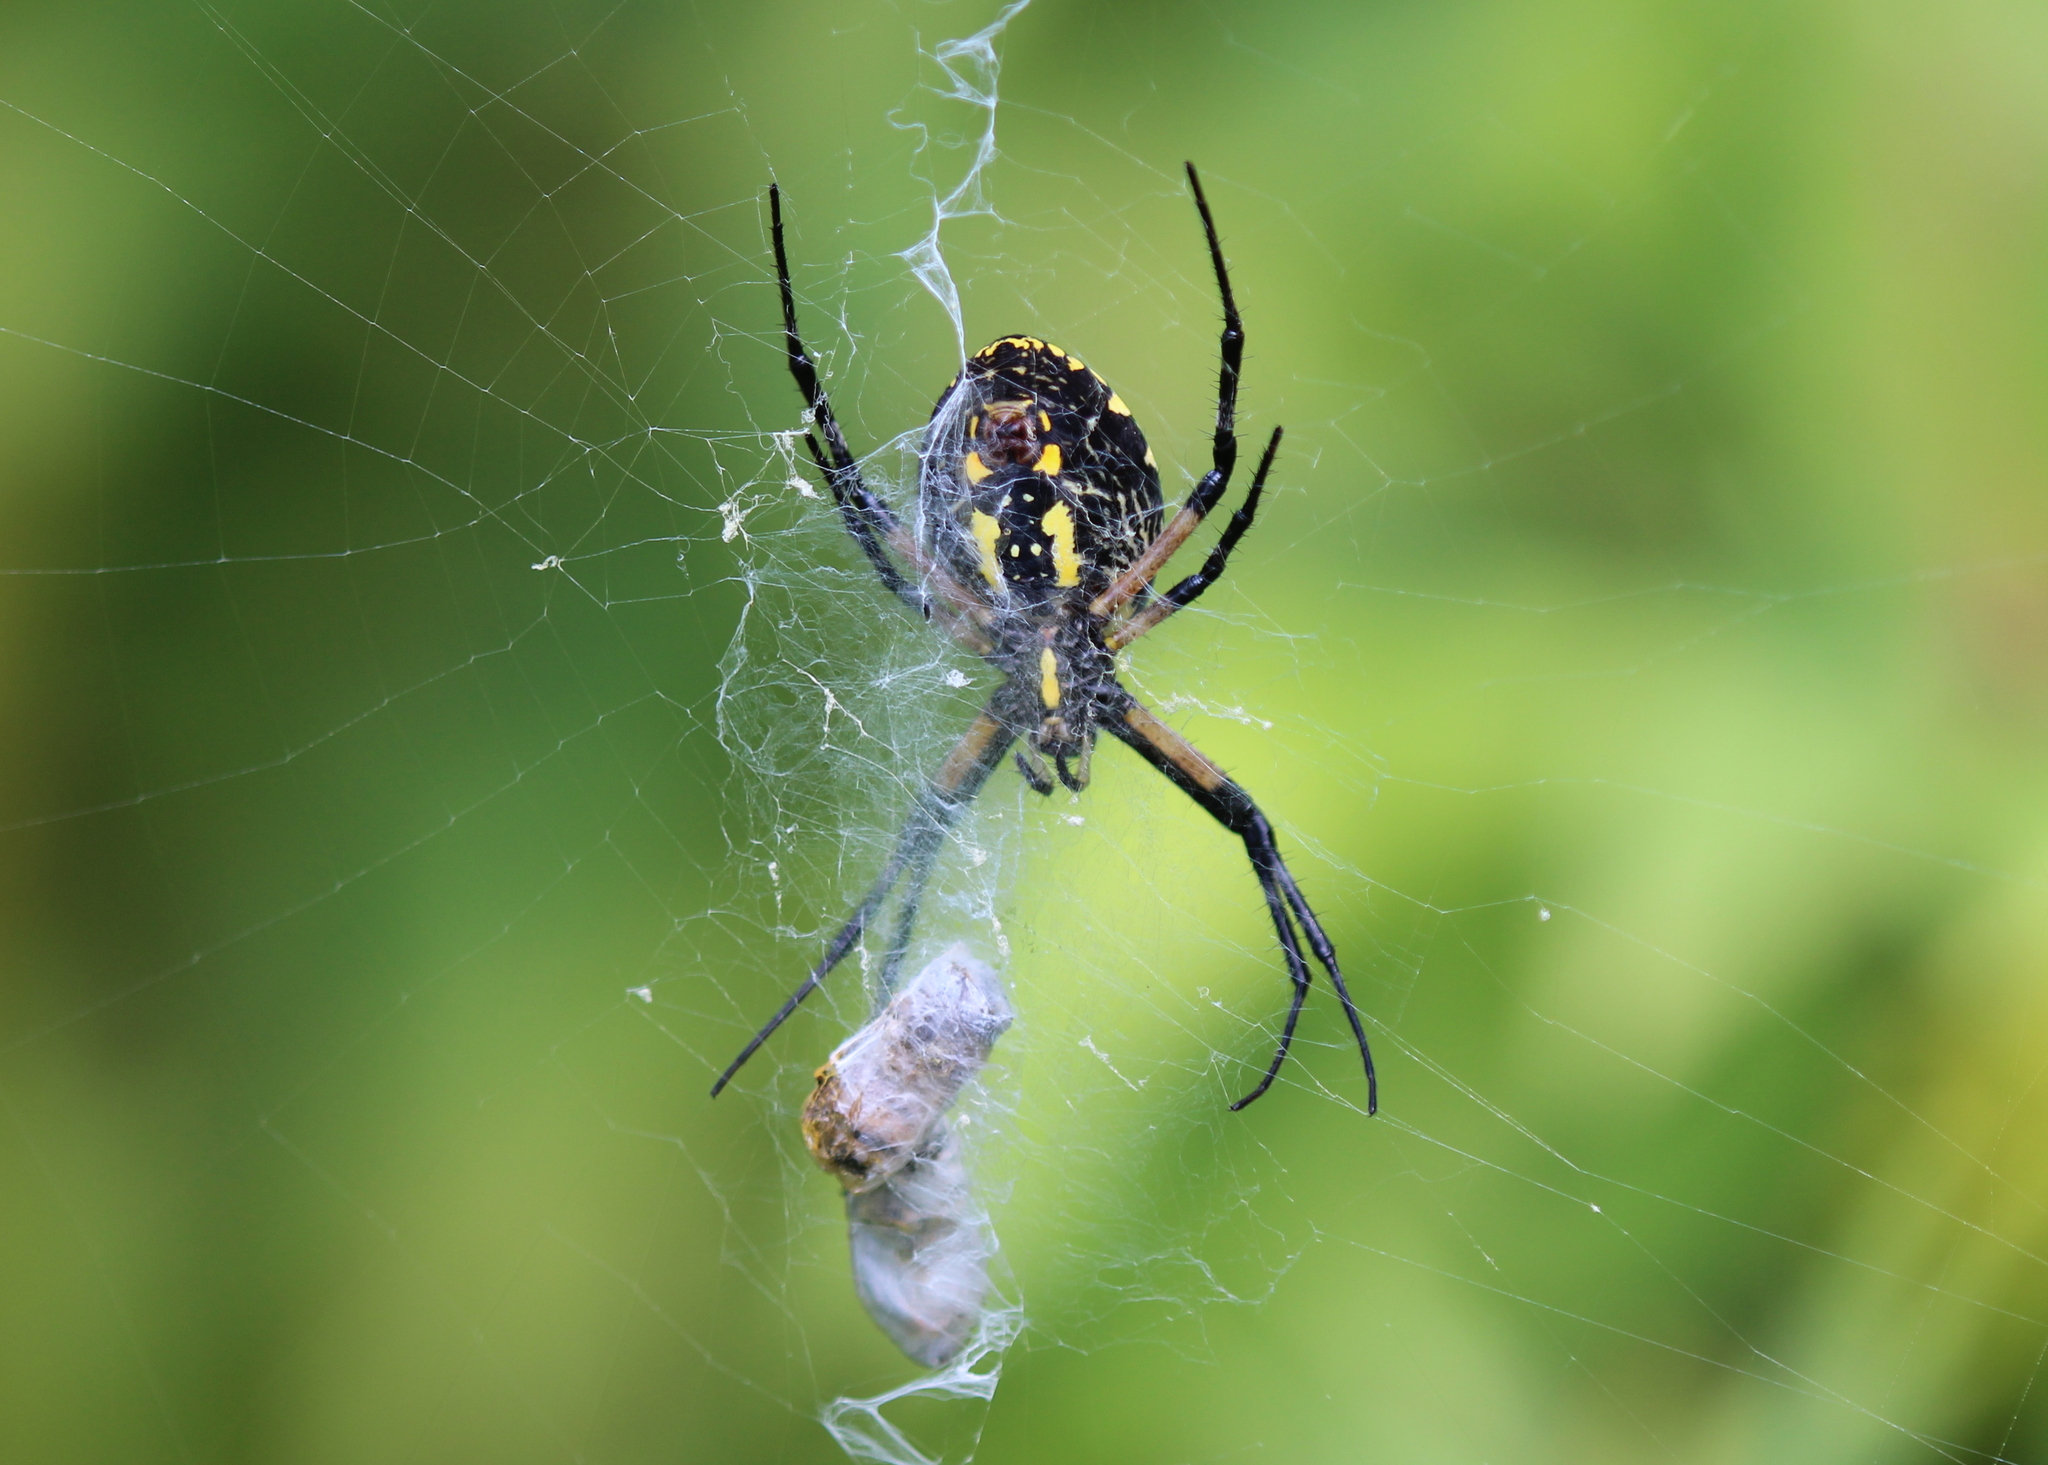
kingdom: Animalia
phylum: Arthropoda
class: Arachnida
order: Araneae
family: Araneidae
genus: Argiope
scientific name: Argiope aurantia
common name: Orb weavers
